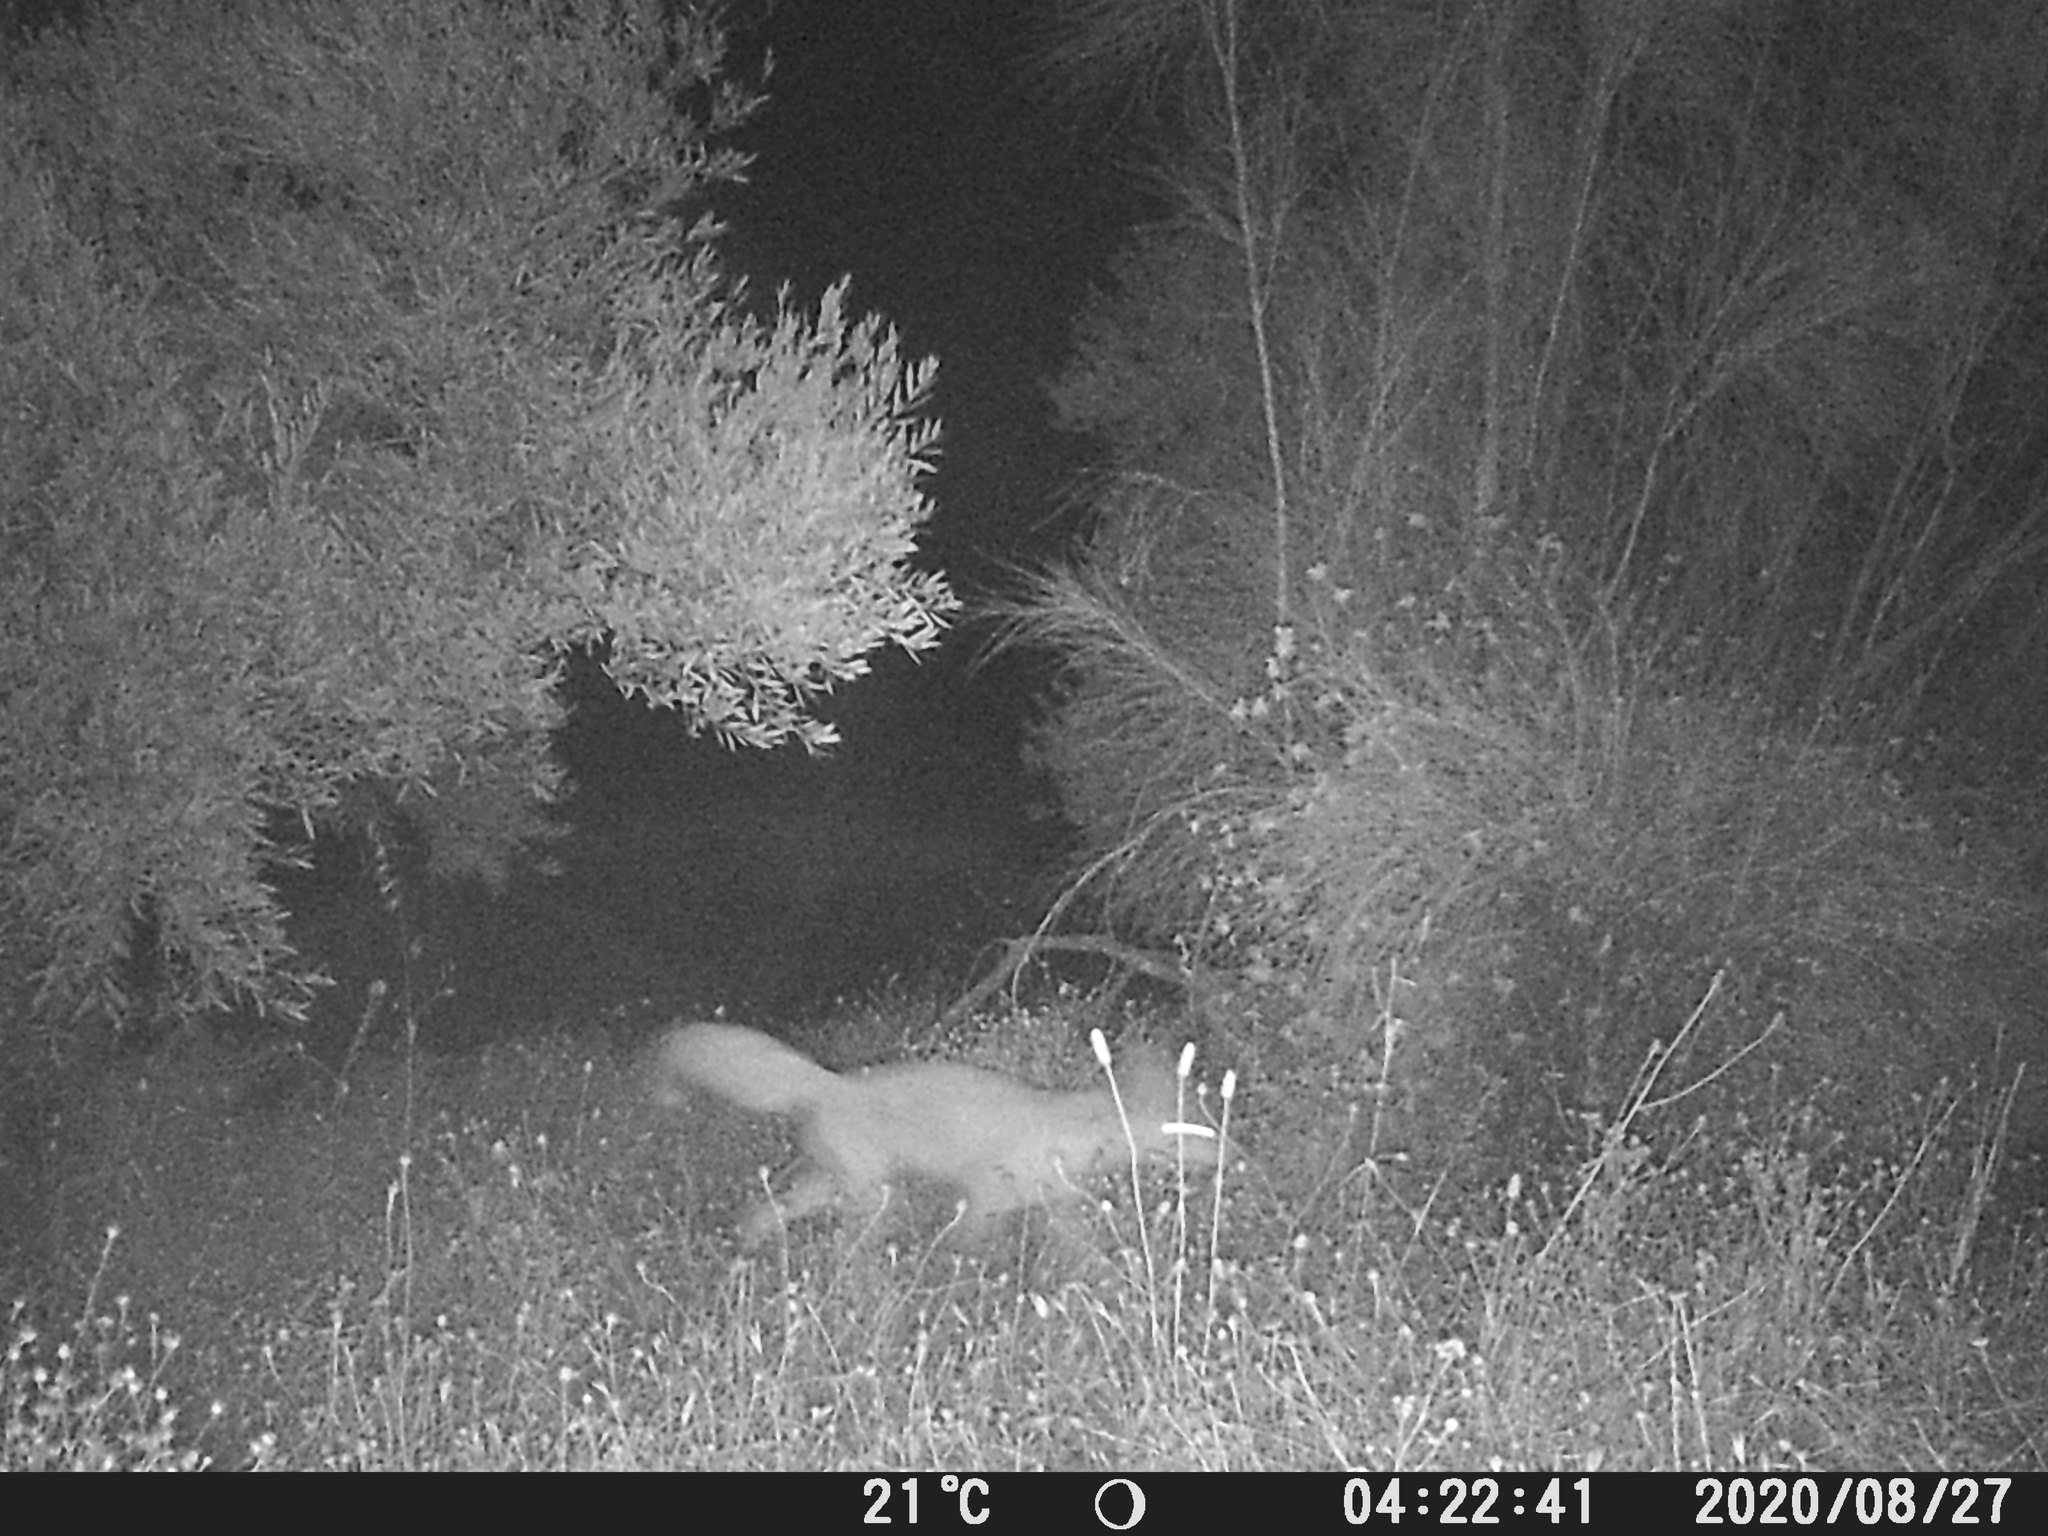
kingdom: Animalia
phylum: Chordata
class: Mammalia
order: Carnivora
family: Canidae
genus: Vulpes
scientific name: Vulpes vulpes
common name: Red fox
